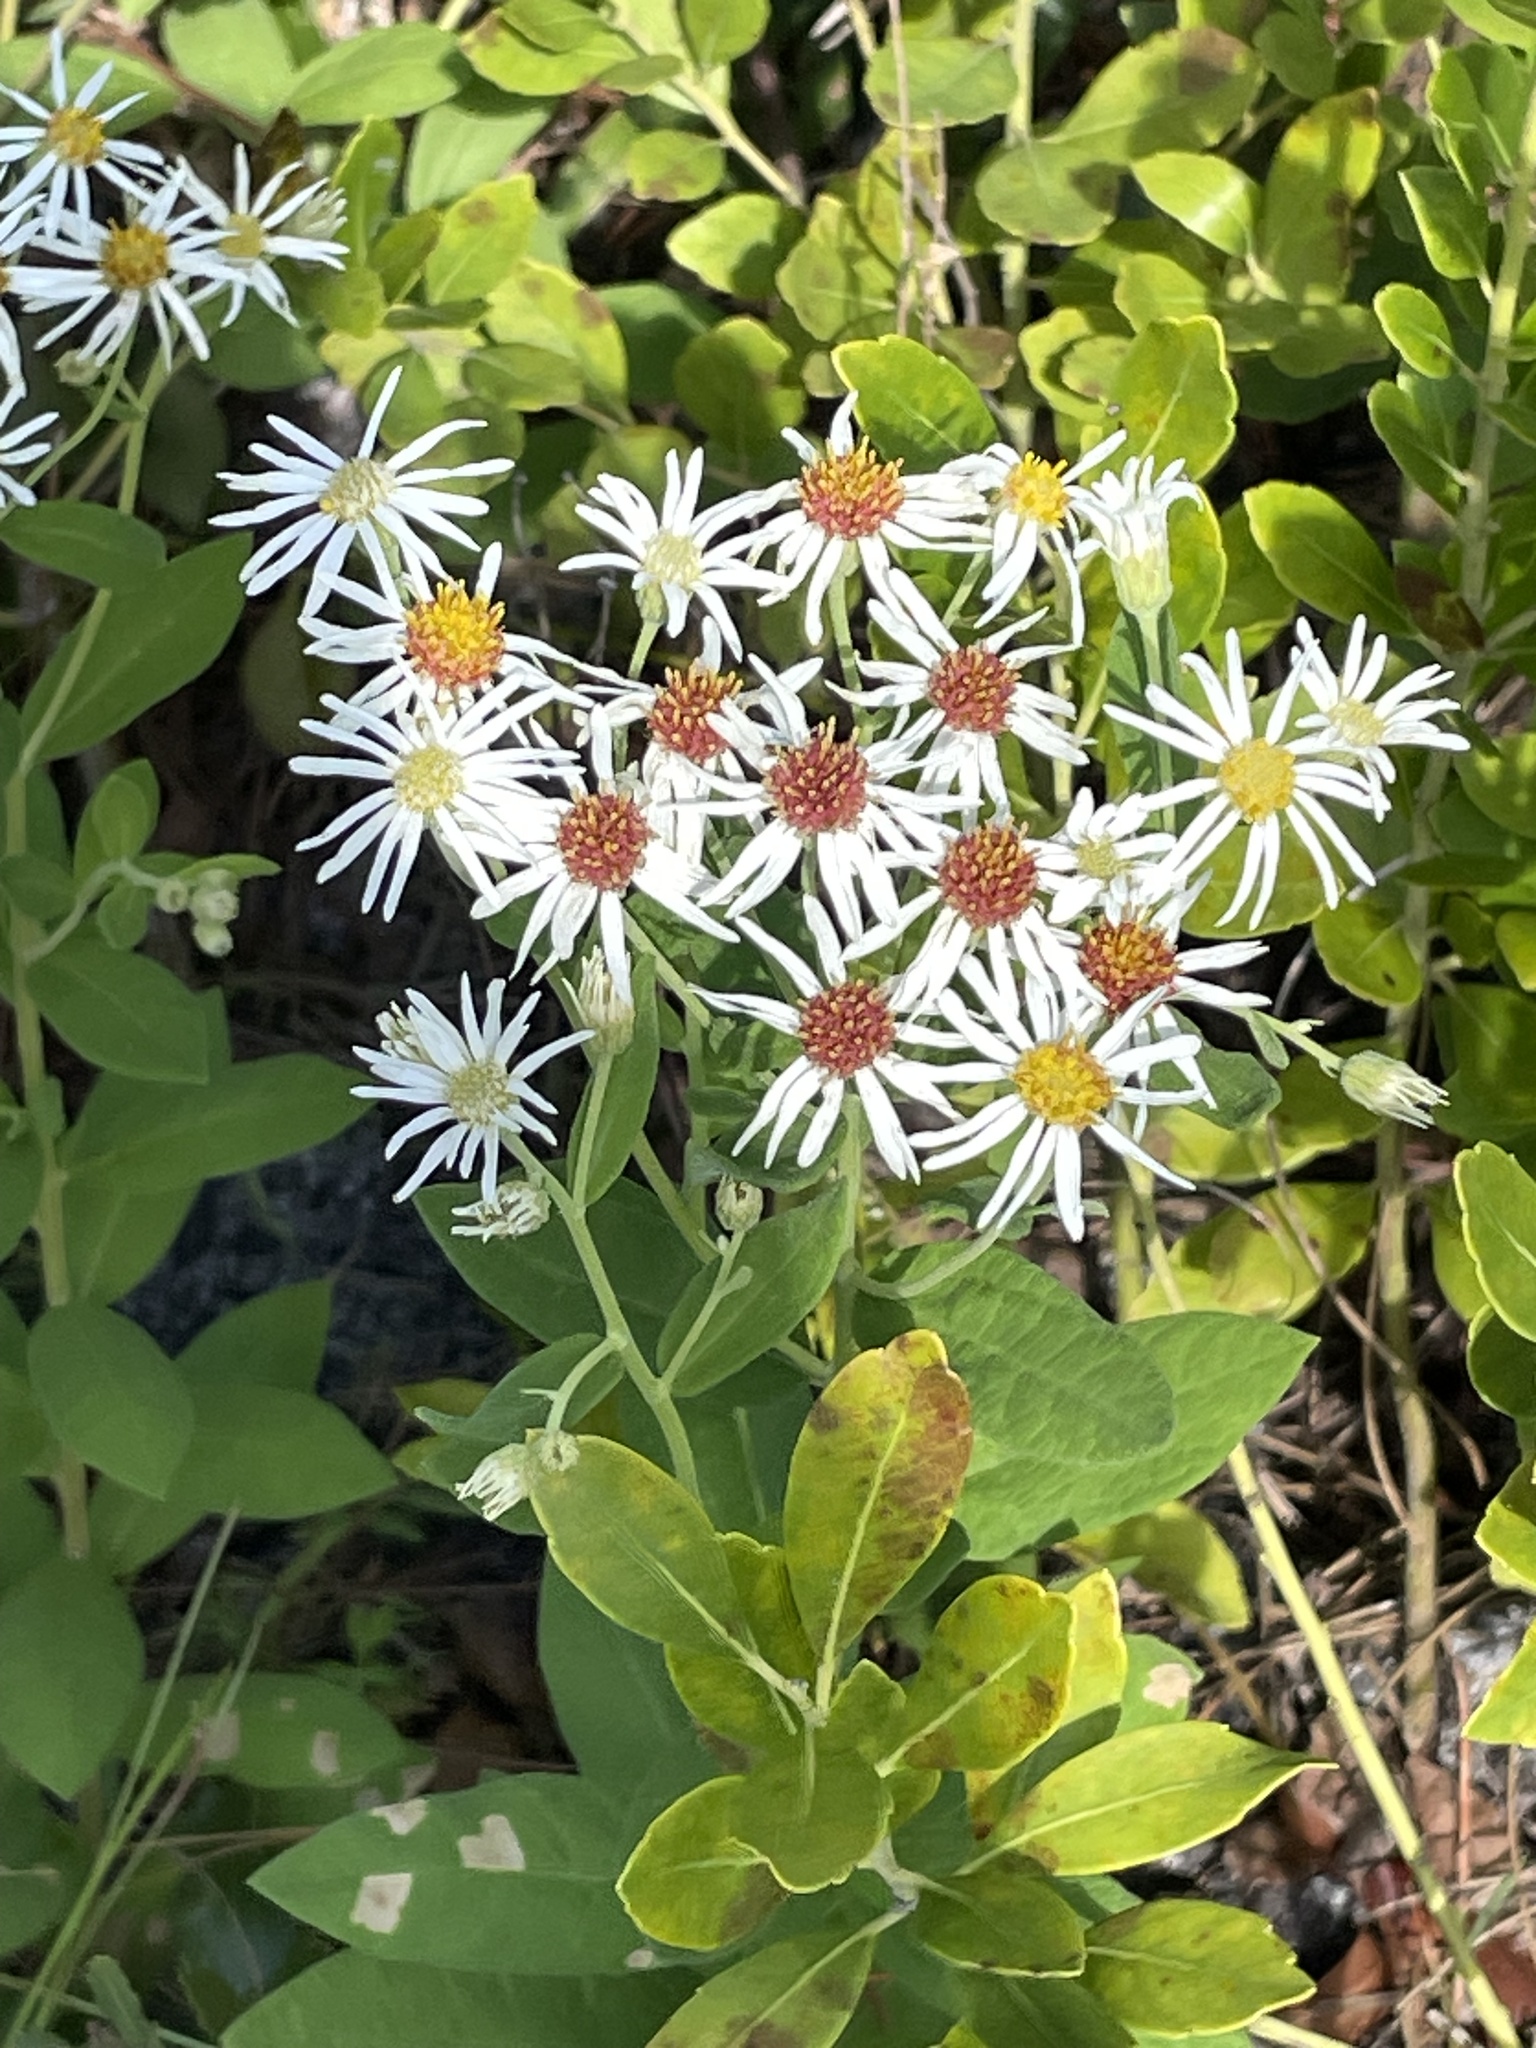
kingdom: Plantae
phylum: Tracheophyta
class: Magnoliopsida
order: Asterales
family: Asteraceae
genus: Oclemena
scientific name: Oclemena reticulata
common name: Pinebarren aster
